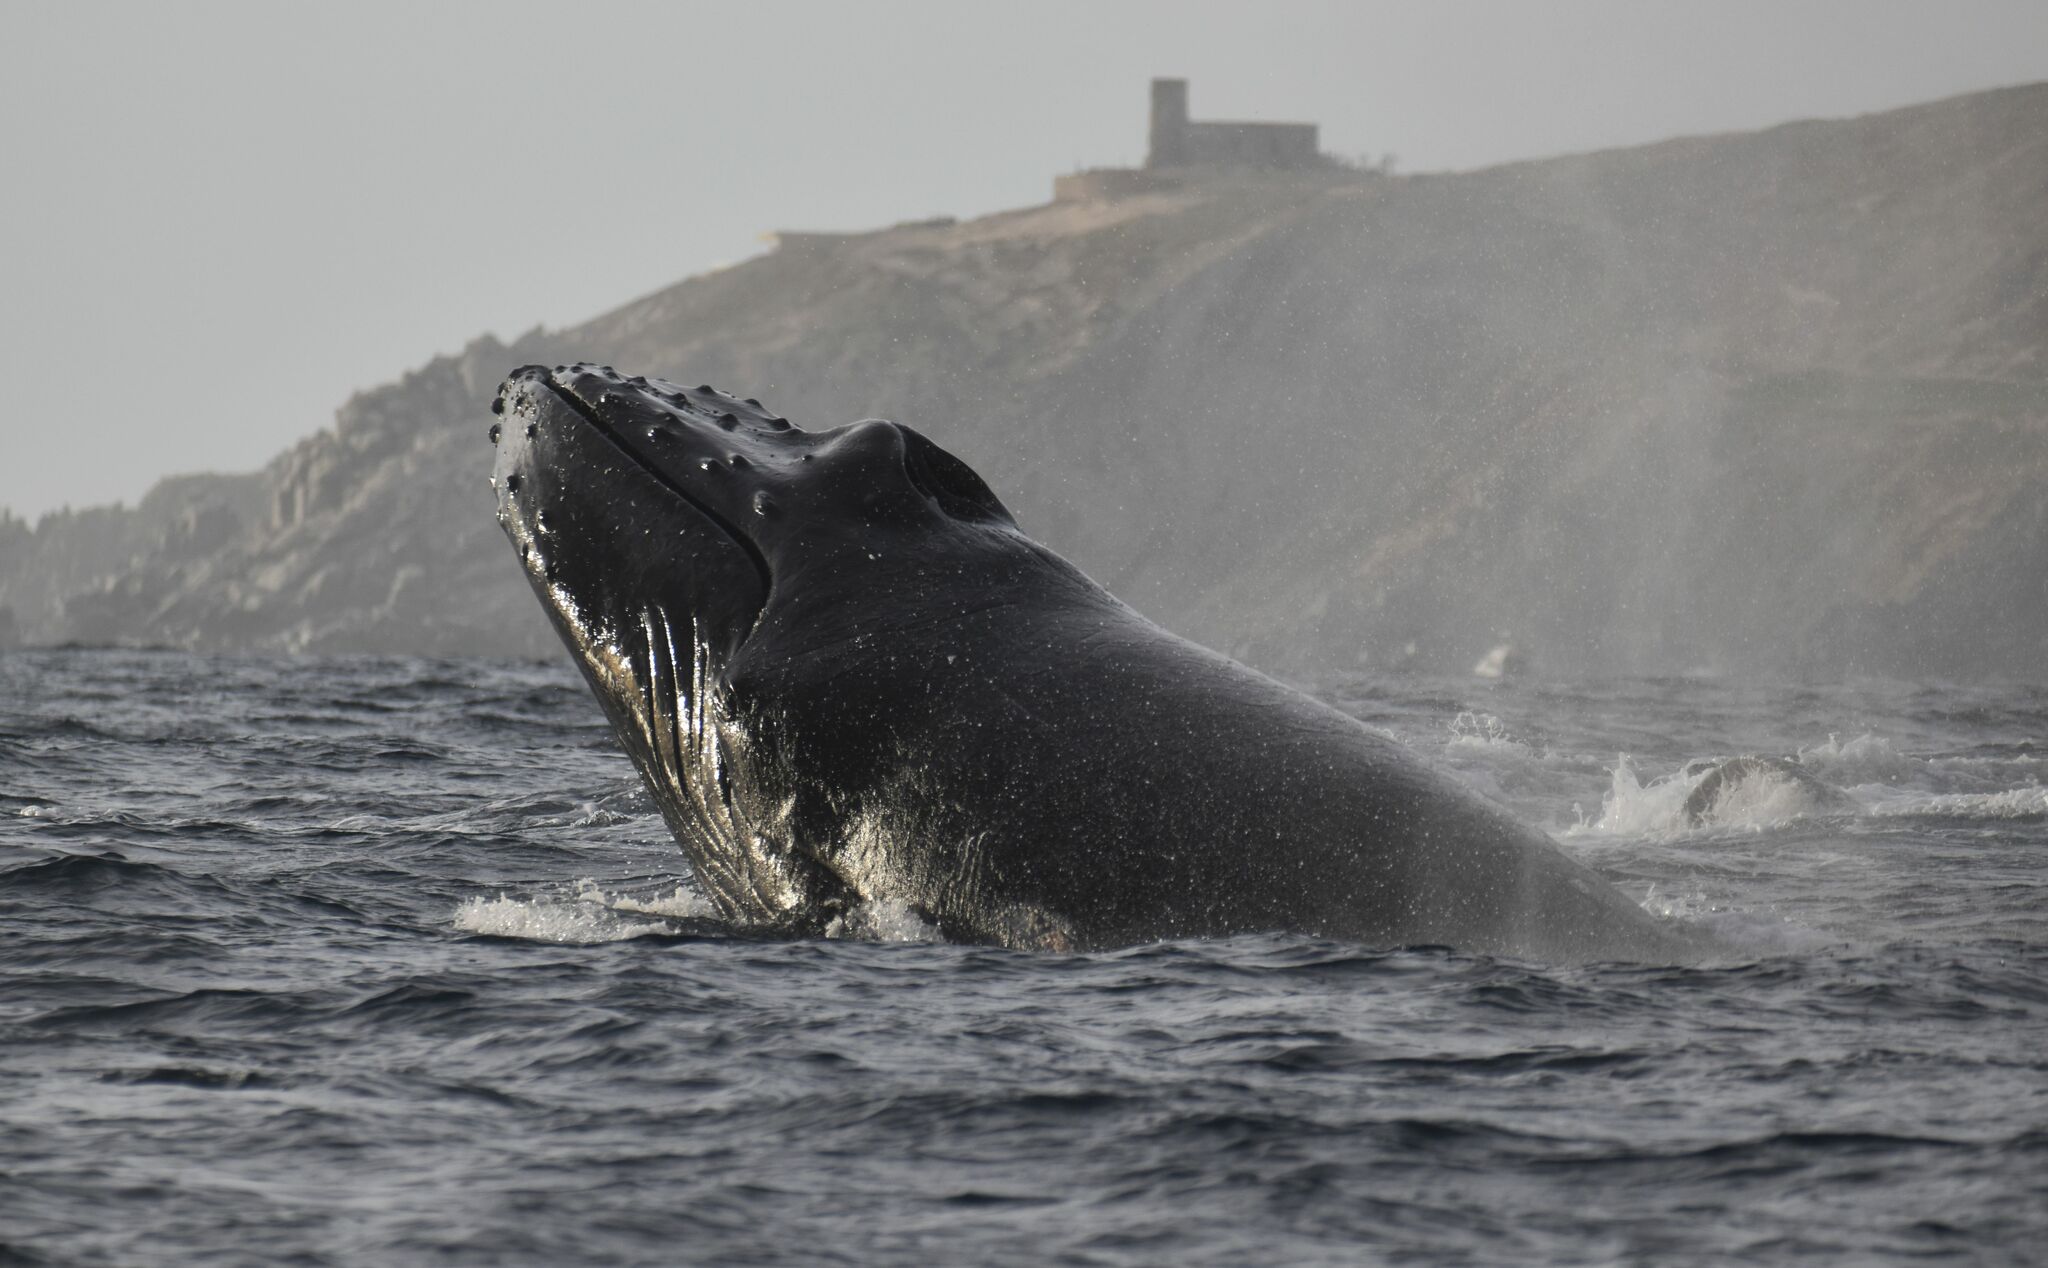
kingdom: Animalia
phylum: Chordata
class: Mammalia
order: Cetacea
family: Balaenopteridae
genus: Megaptera
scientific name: Megaptera novaeangliae
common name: Humpback whale
